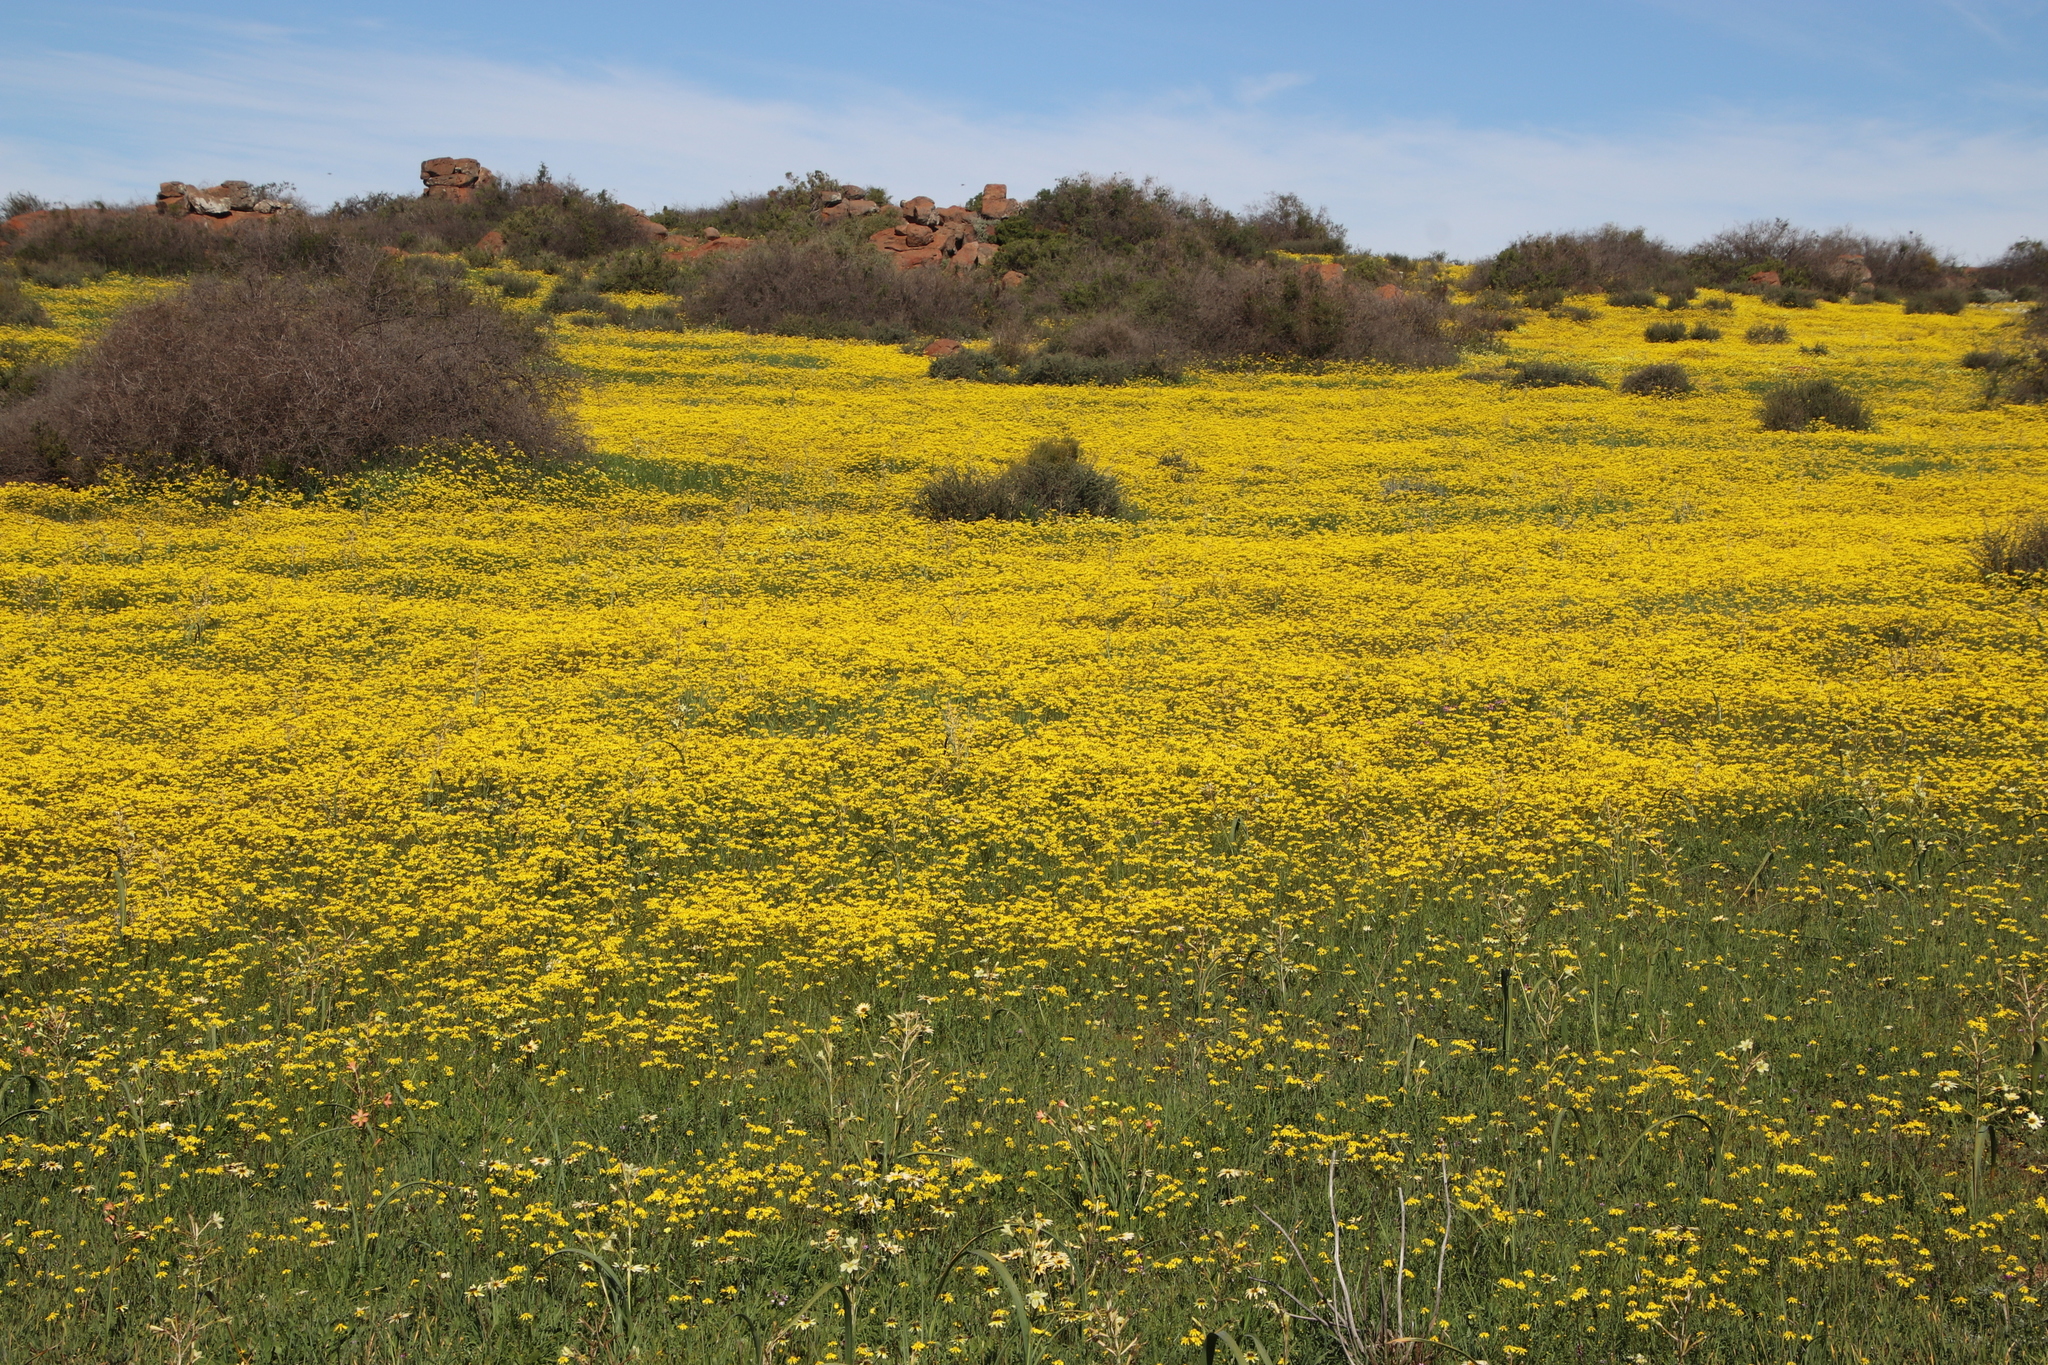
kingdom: Plantae
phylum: Tracheophyta
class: Magnoliopsida
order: Asterales
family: Asteraceae
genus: Senecio
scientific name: Senecio abruptus
